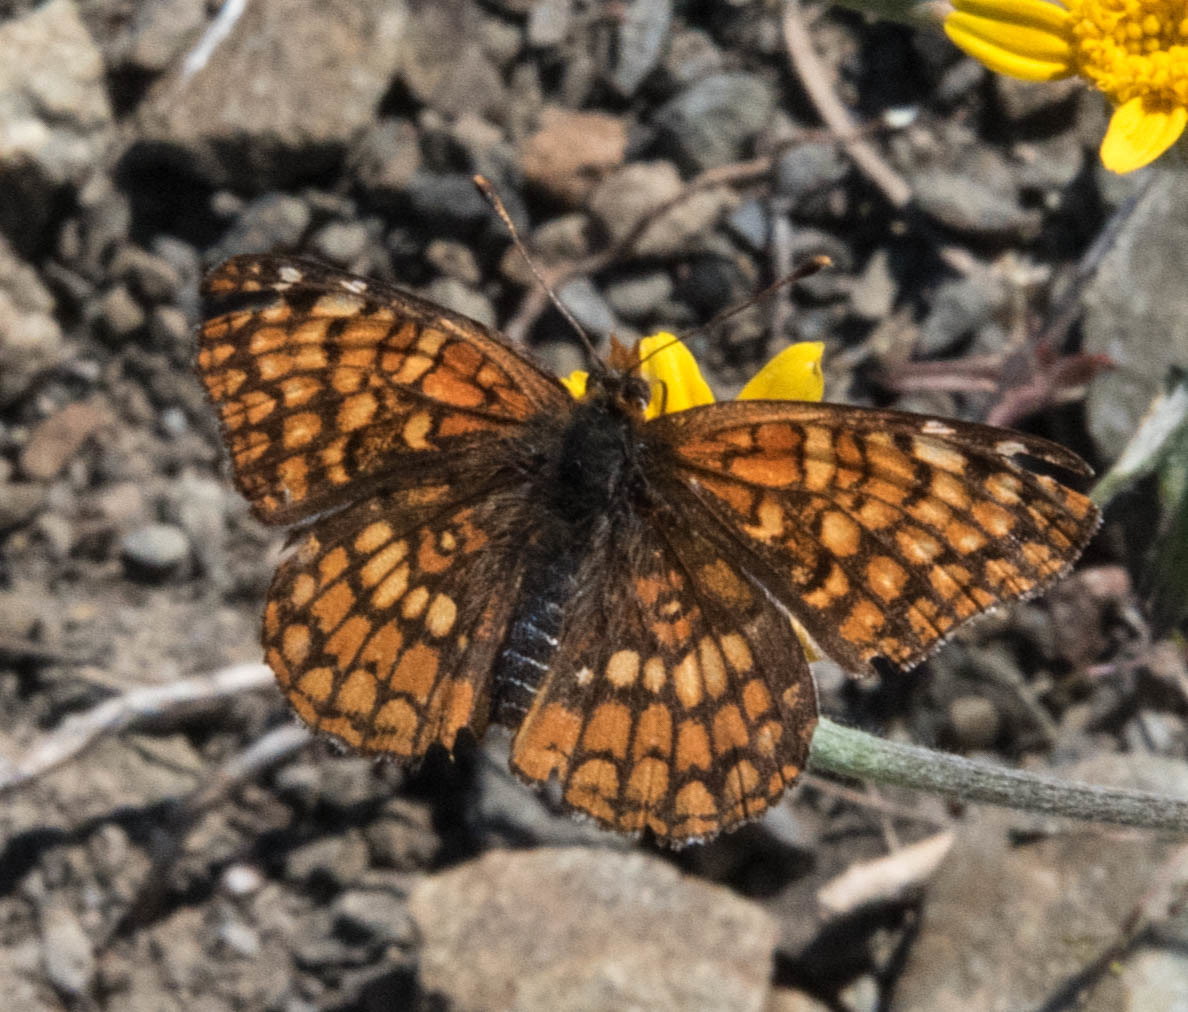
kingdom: Animalia
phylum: Arthropoda
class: Insecta
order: Lepidoptera
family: Nymphalidae
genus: Chlosyne
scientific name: Chlosyne palla
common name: Northern checkerspot
